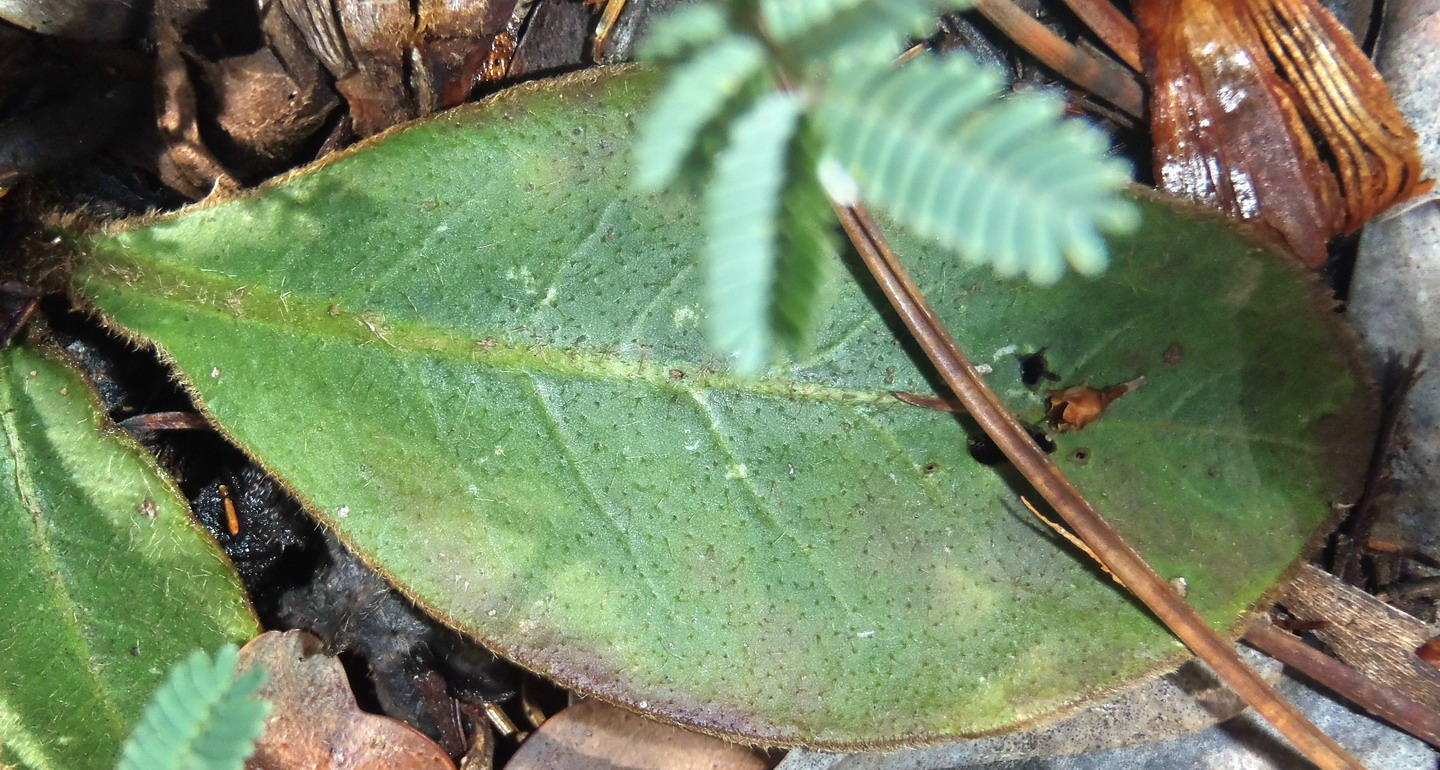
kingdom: Plantae
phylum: Tracheophyta
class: Magnoliopsida
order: Asterales
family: Asteraceae
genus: Piloselloides
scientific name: Piloselloides hirsuta
